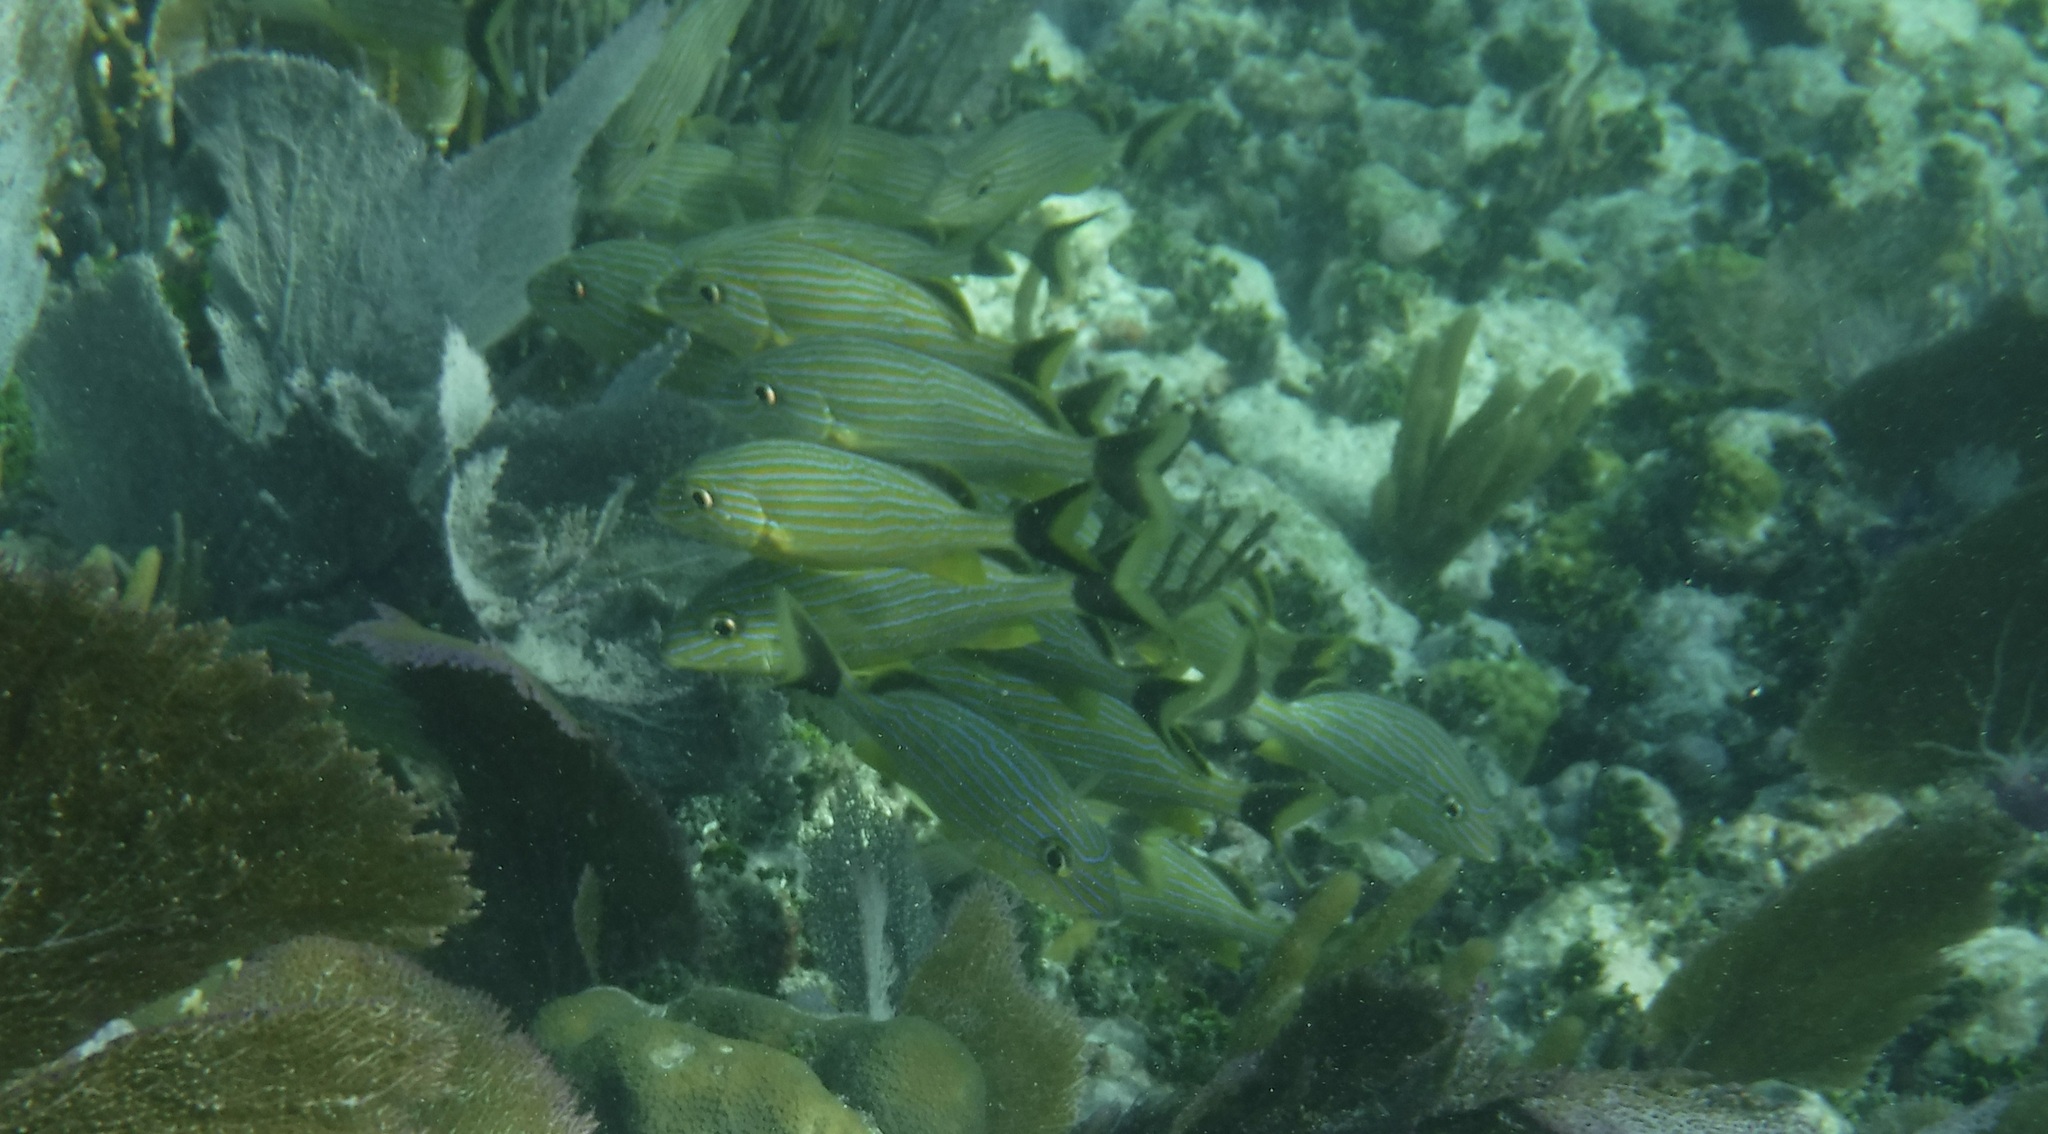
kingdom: Animalia
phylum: Chordata
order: Perciformes
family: Haemulidae
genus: Haemulon
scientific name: Haemulon sciurus
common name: Bluestriped grunt
